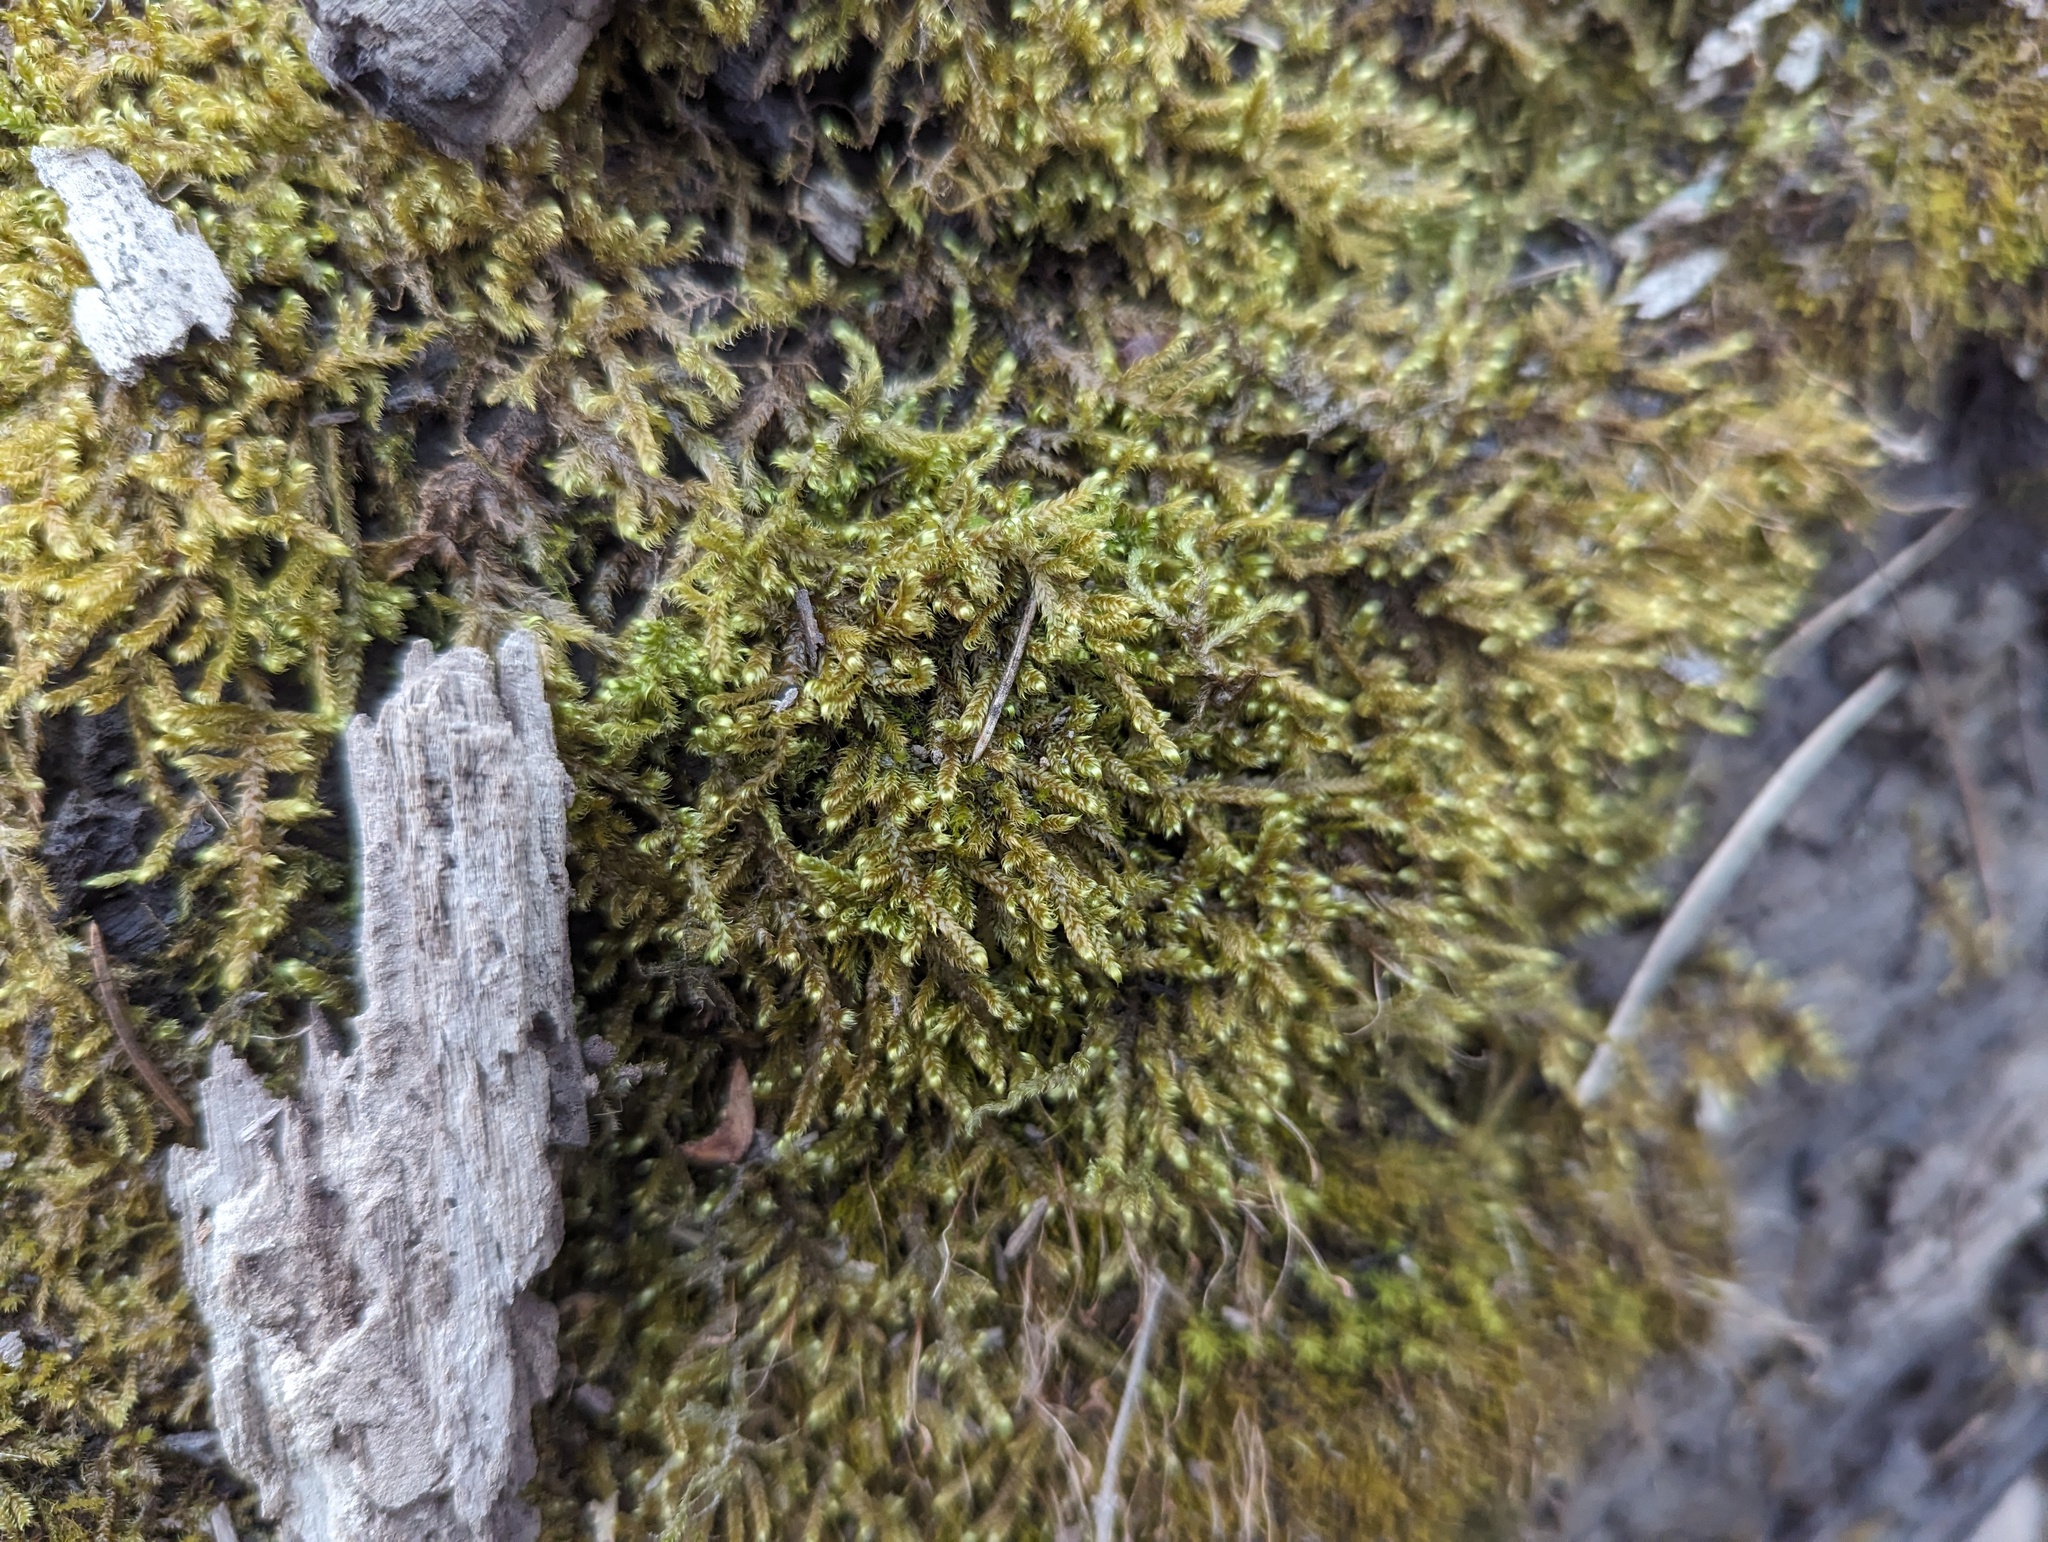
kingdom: Plantae
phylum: Bryophyta
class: Bryopsida
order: Hypnales
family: Pylaisiaceae
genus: Calliergonella
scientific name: Calliergonella lindbergii
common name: Lindberg's plait-moss
